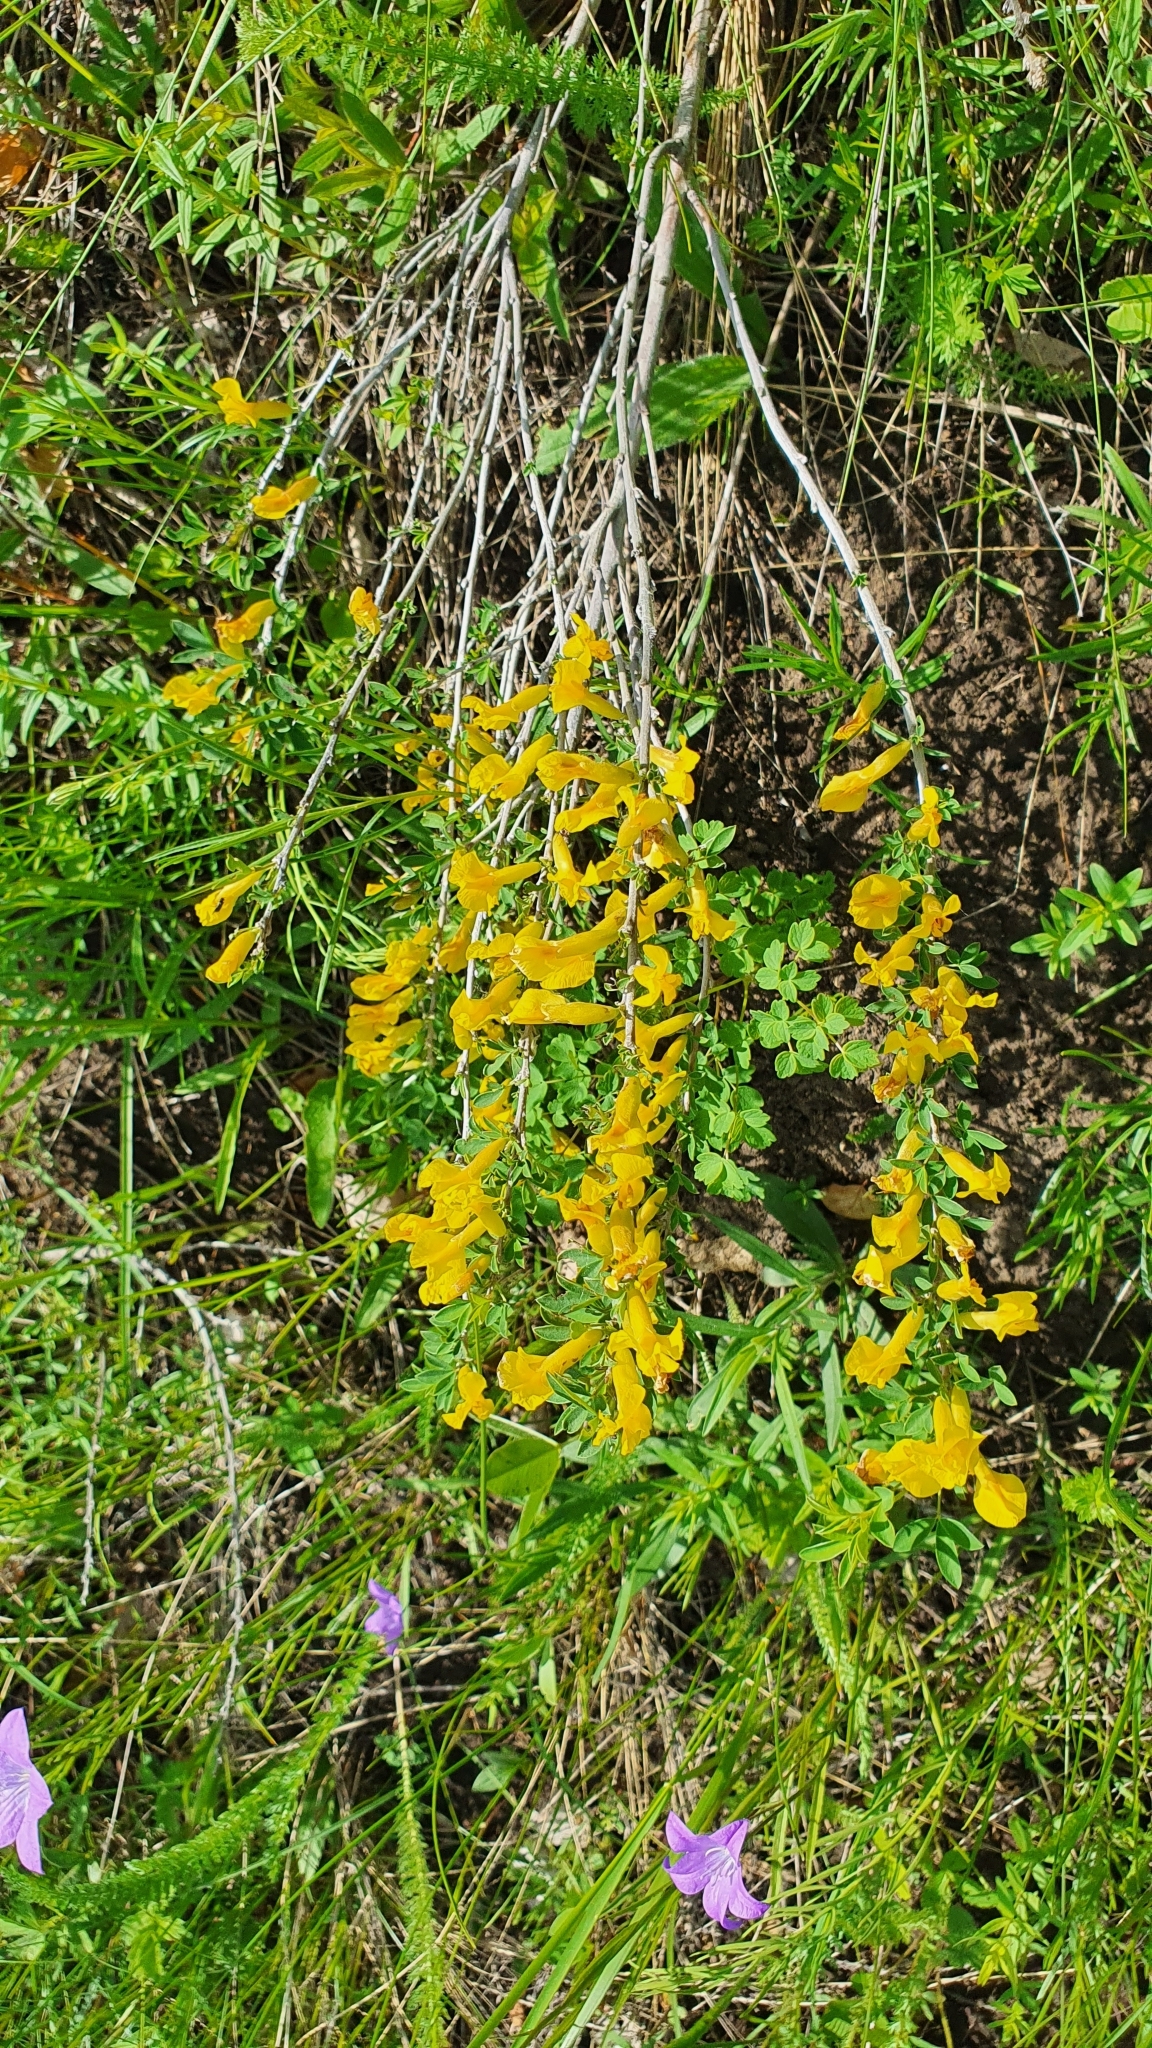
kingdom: Plantae
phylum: Tracheophyta
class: Magnoliopsida
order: Fabales
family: Fabaceae
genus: Chamaecytisus
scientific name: Chamaecytisus ruthenicus
